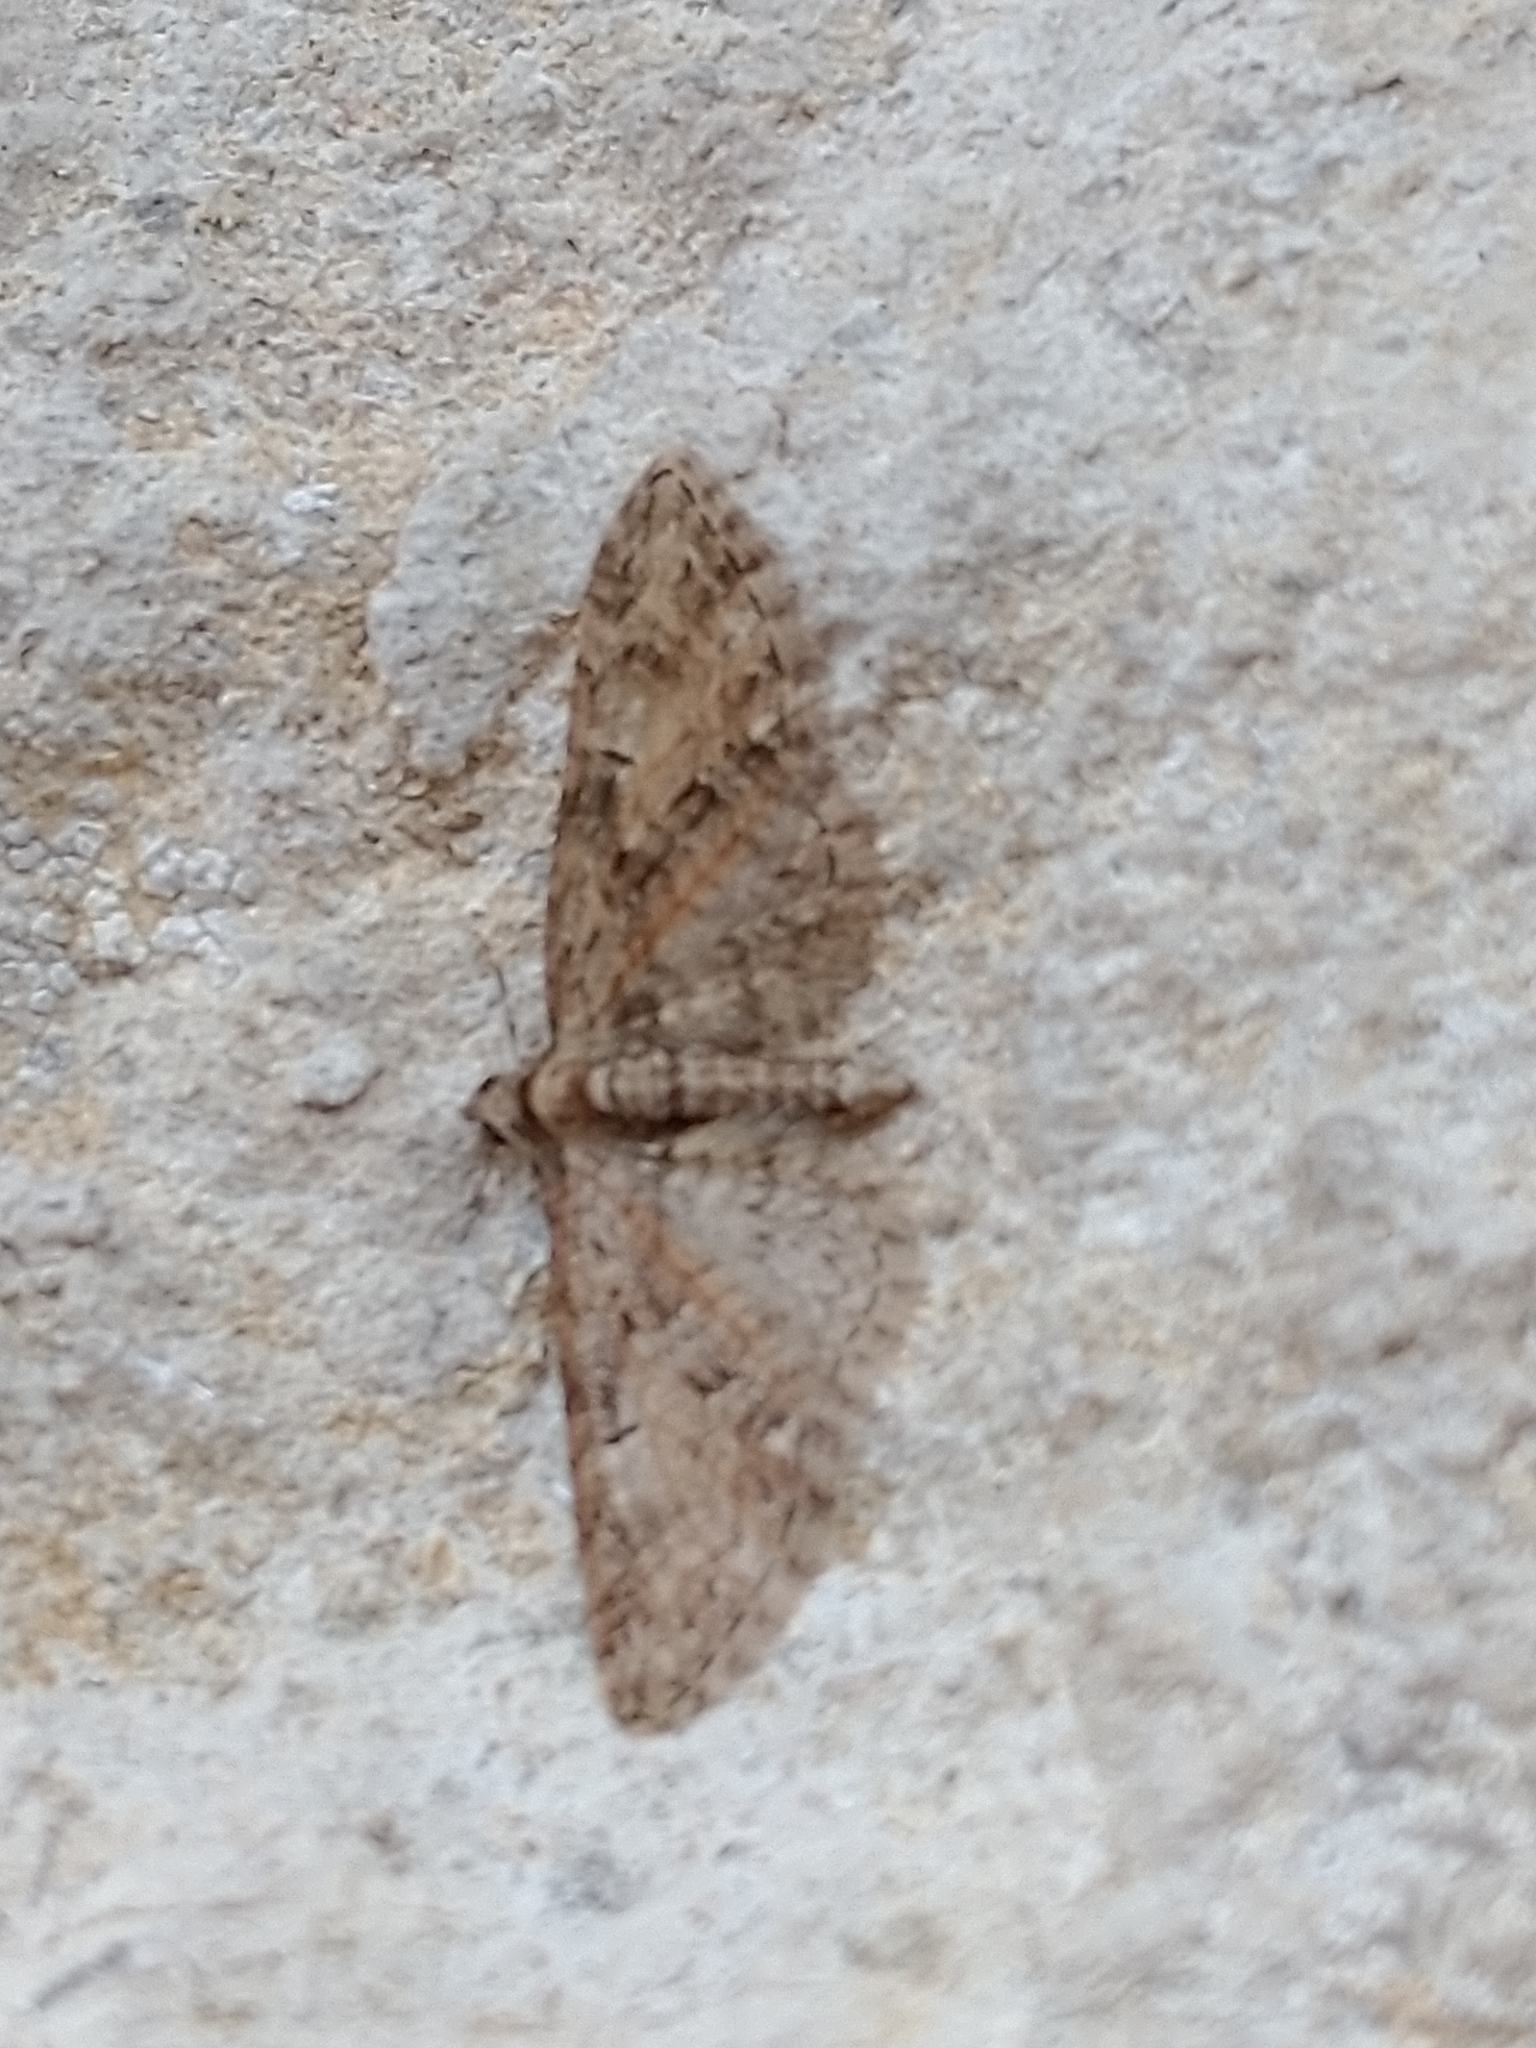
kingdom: Animalia
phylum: Arthropoda
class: Insecta
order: Lepidoptera
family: Geometridae
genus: Eupithecia
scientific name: Eupithecia abbreviata
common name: Brindled pug
